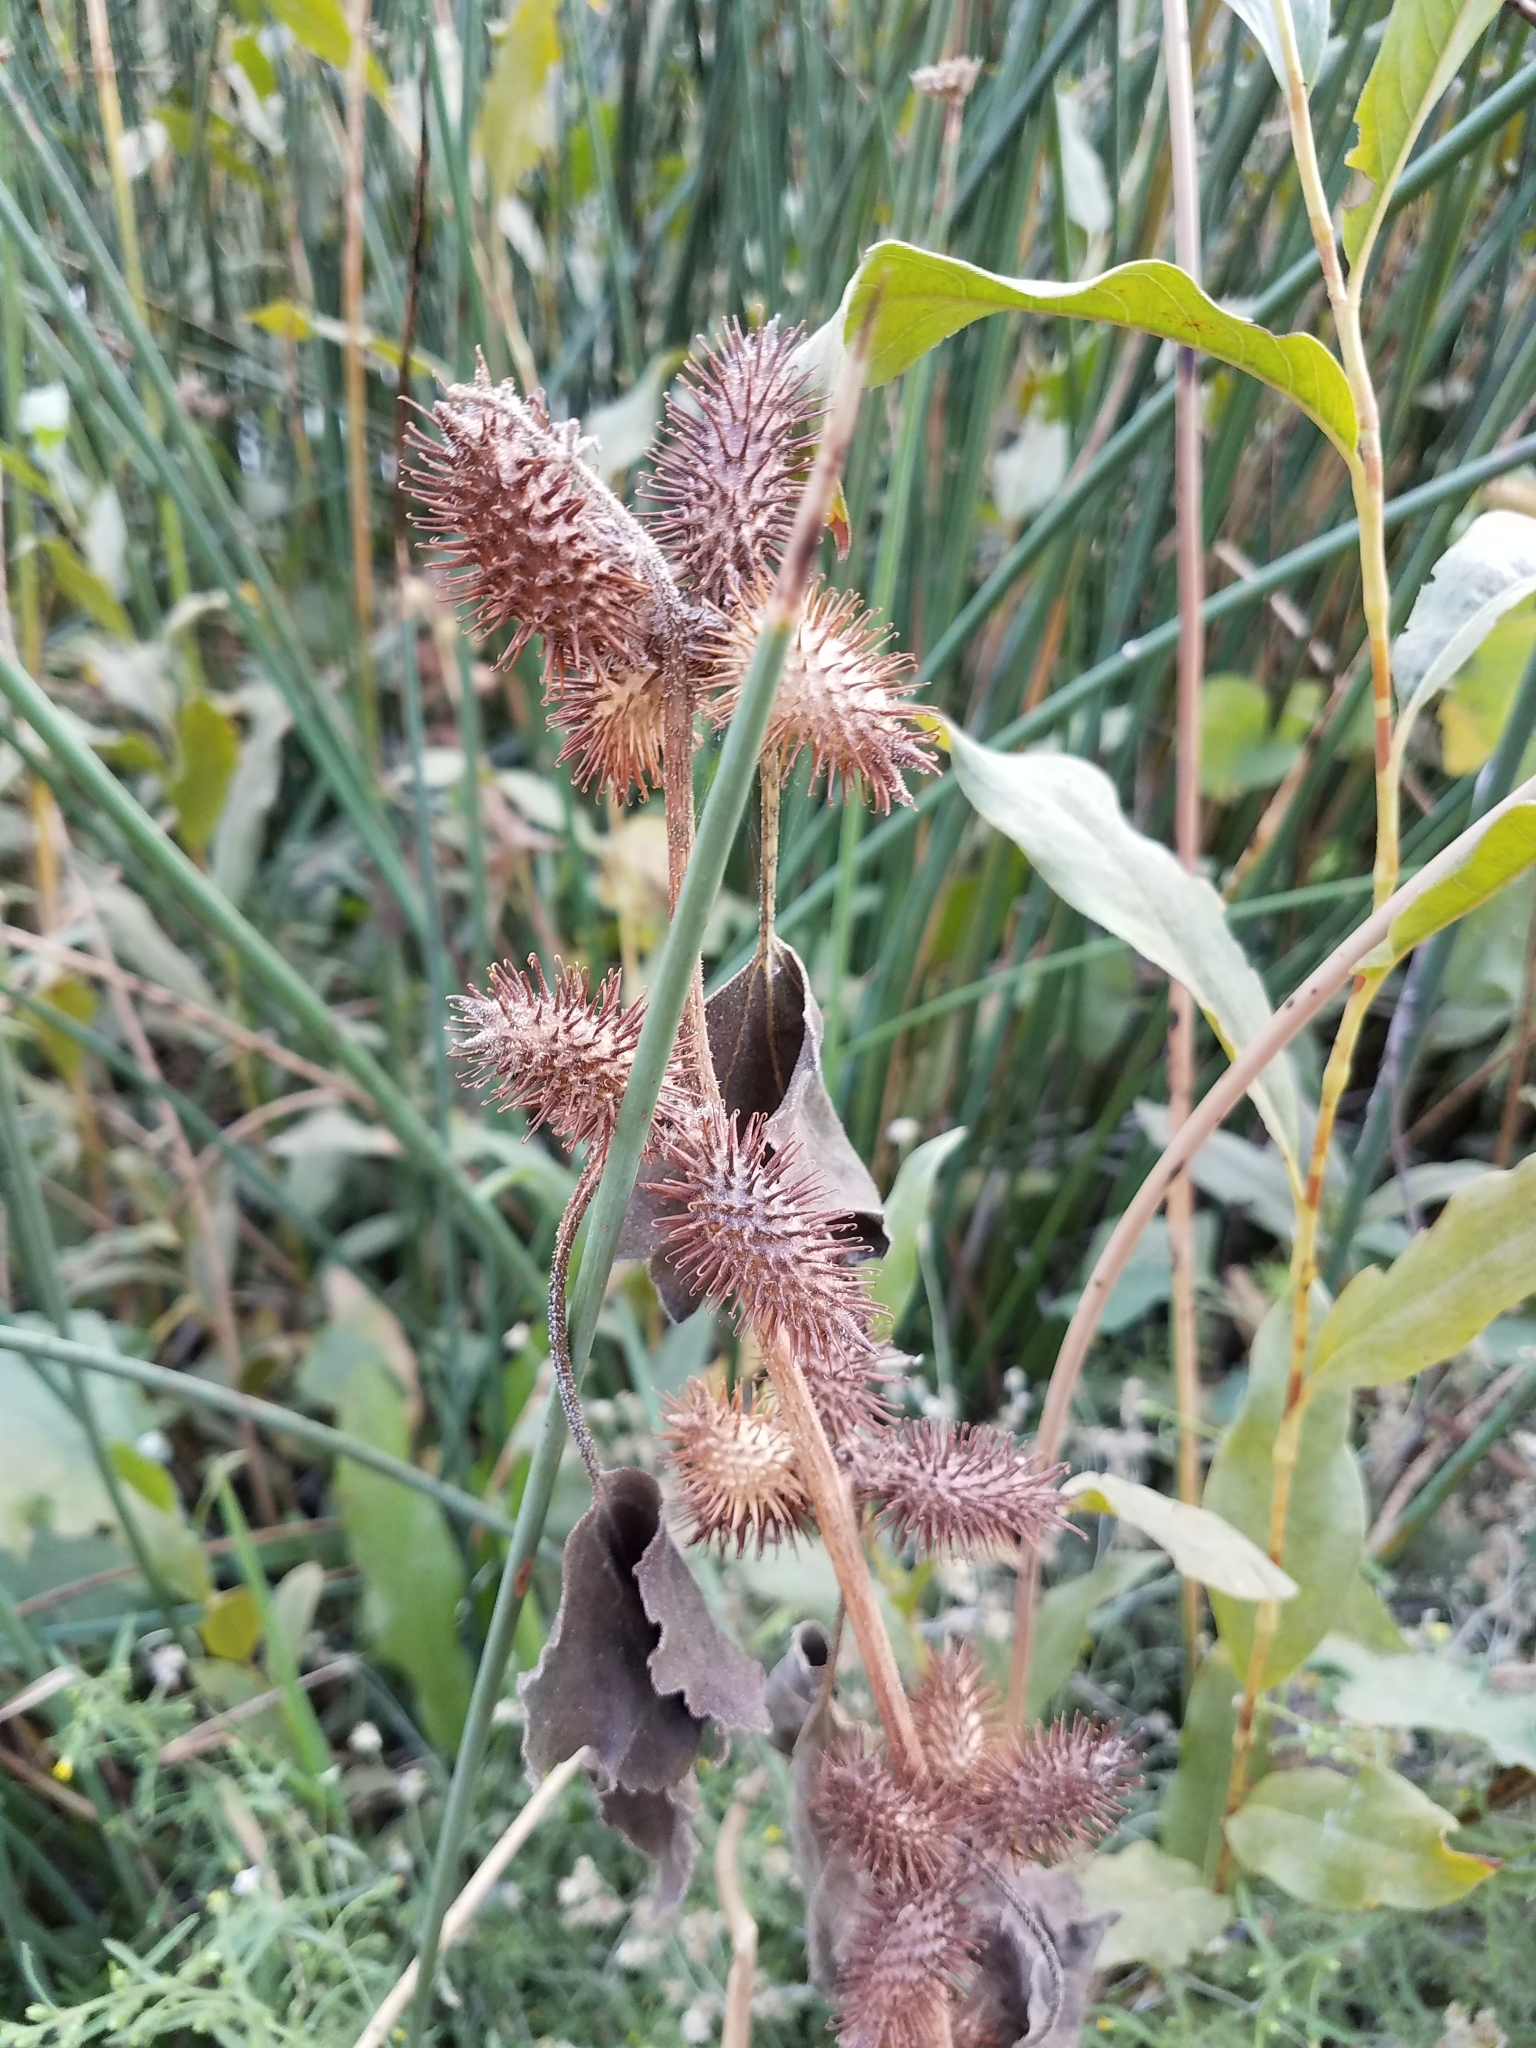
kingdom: Plantae
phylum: Tracheophyta
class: Magnoliopsida
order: Asterales
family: Asteraceae
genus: Xanthium
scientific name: Xanthium strumarium
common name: Rough cocklebur
